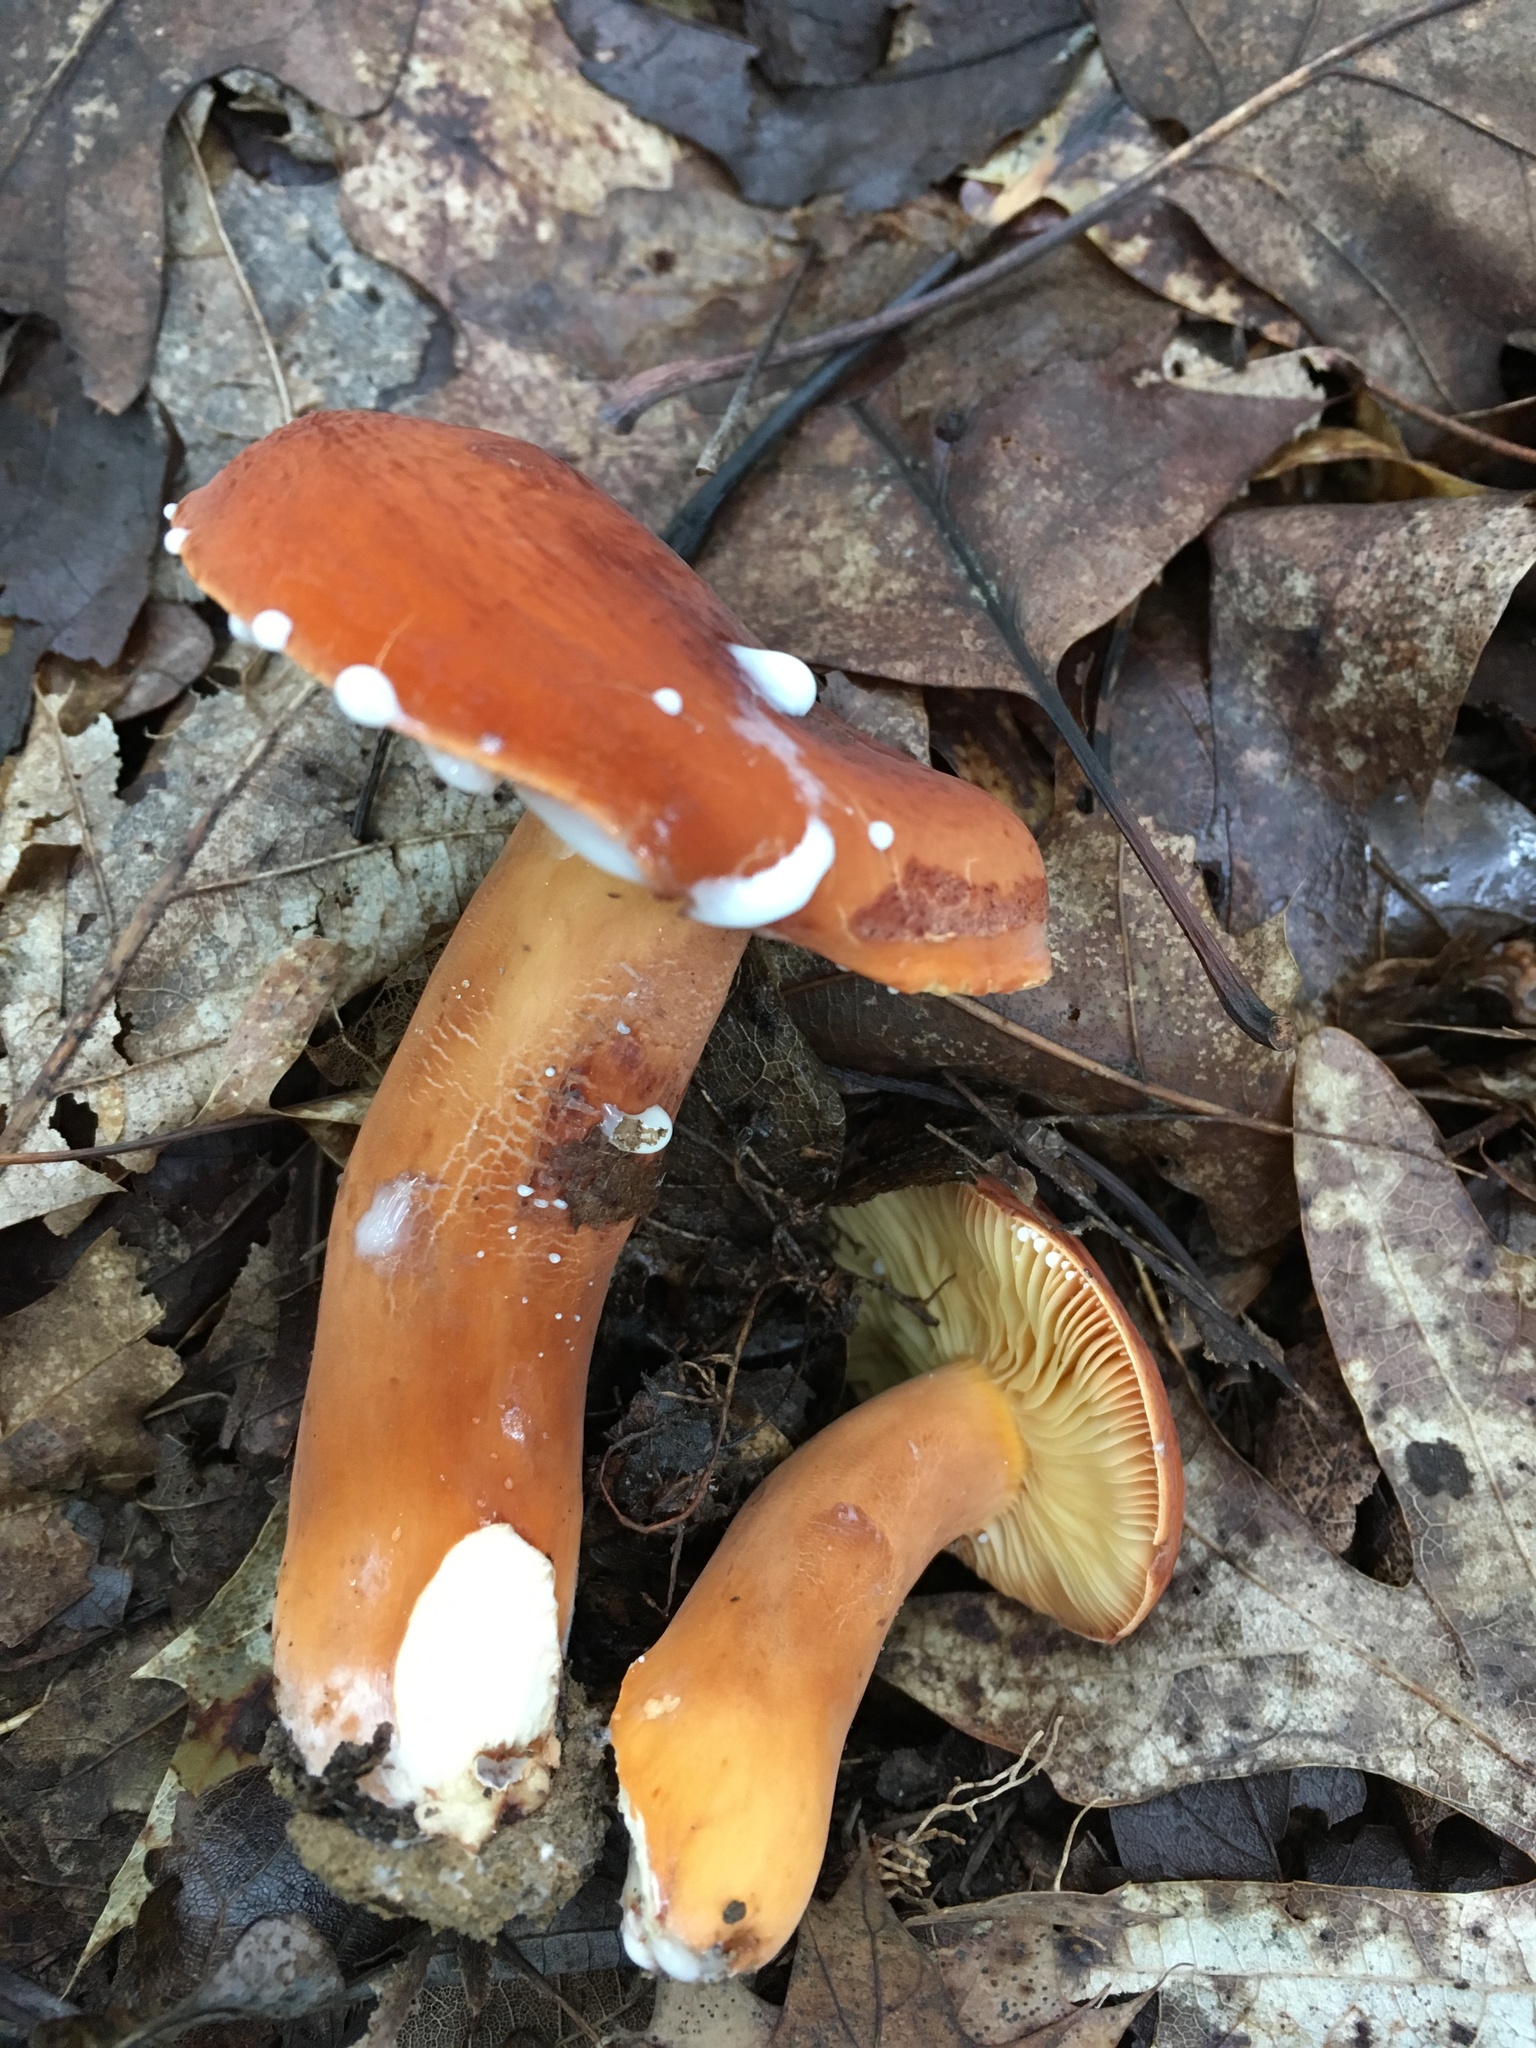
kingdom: Fungi
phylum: Basidiomycota
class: Agaricomycetes
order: Russulales
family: Russulaceae
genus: Lactifluus
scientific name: Lactifluus volemus
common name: Fishy milkcap
